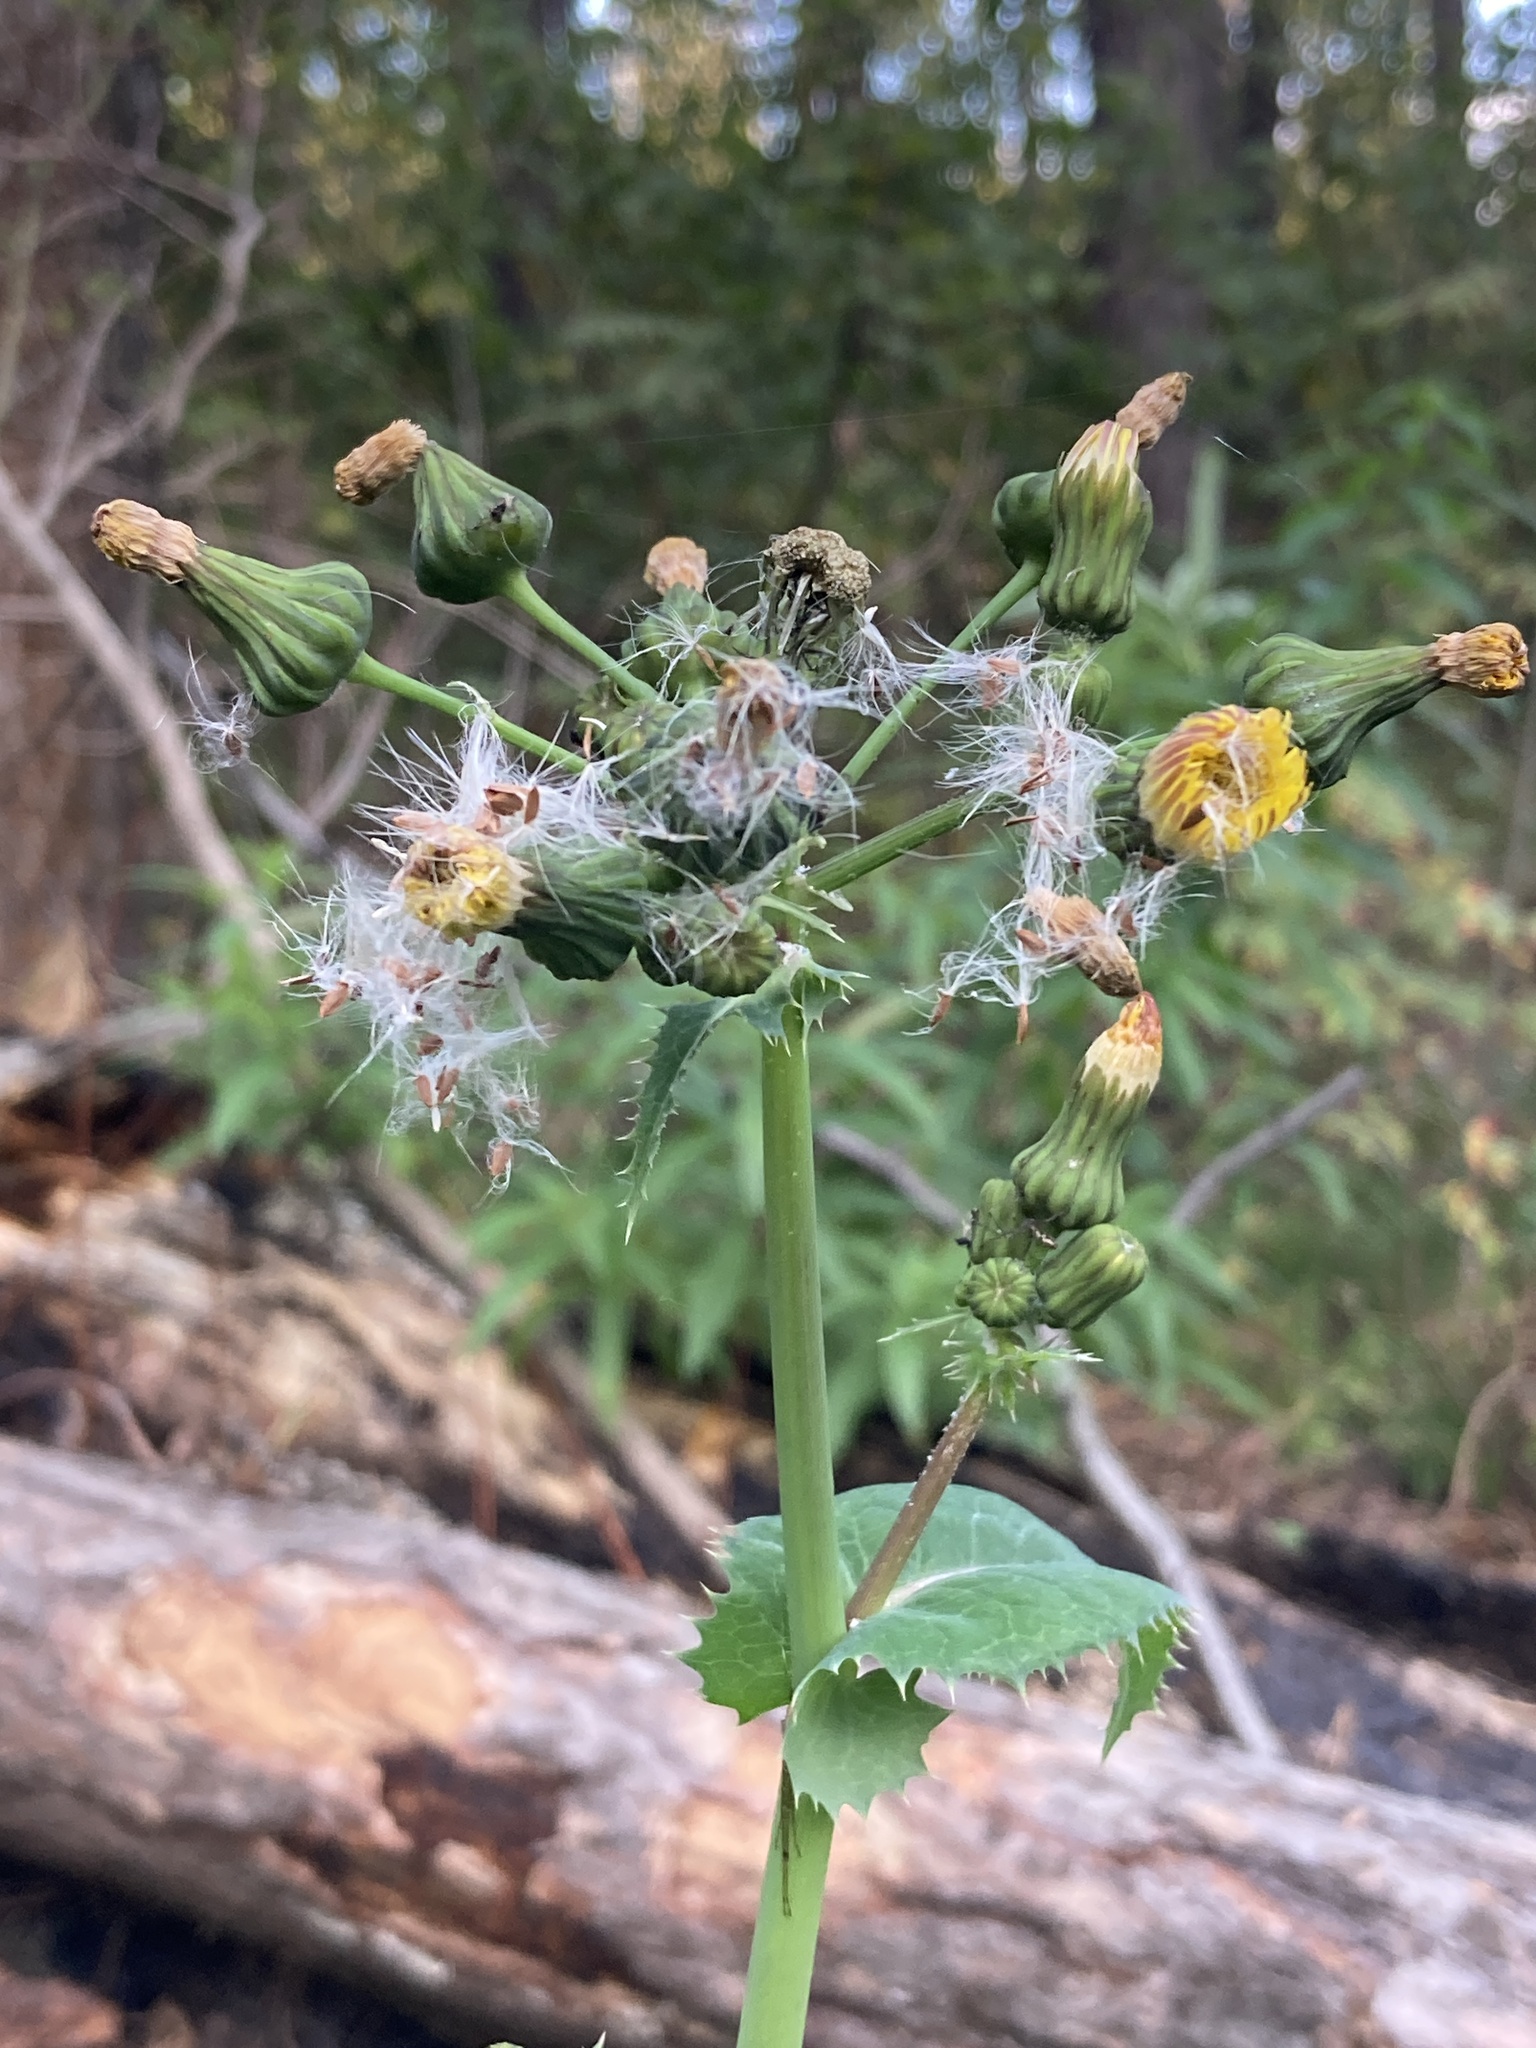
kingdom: Plantae
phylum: Tracheophyta
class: Magnoliopsida
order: Asterales
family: Asteraceae
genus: Sonchus
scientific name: Sonchus oleraceus
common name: Common sowthistle
